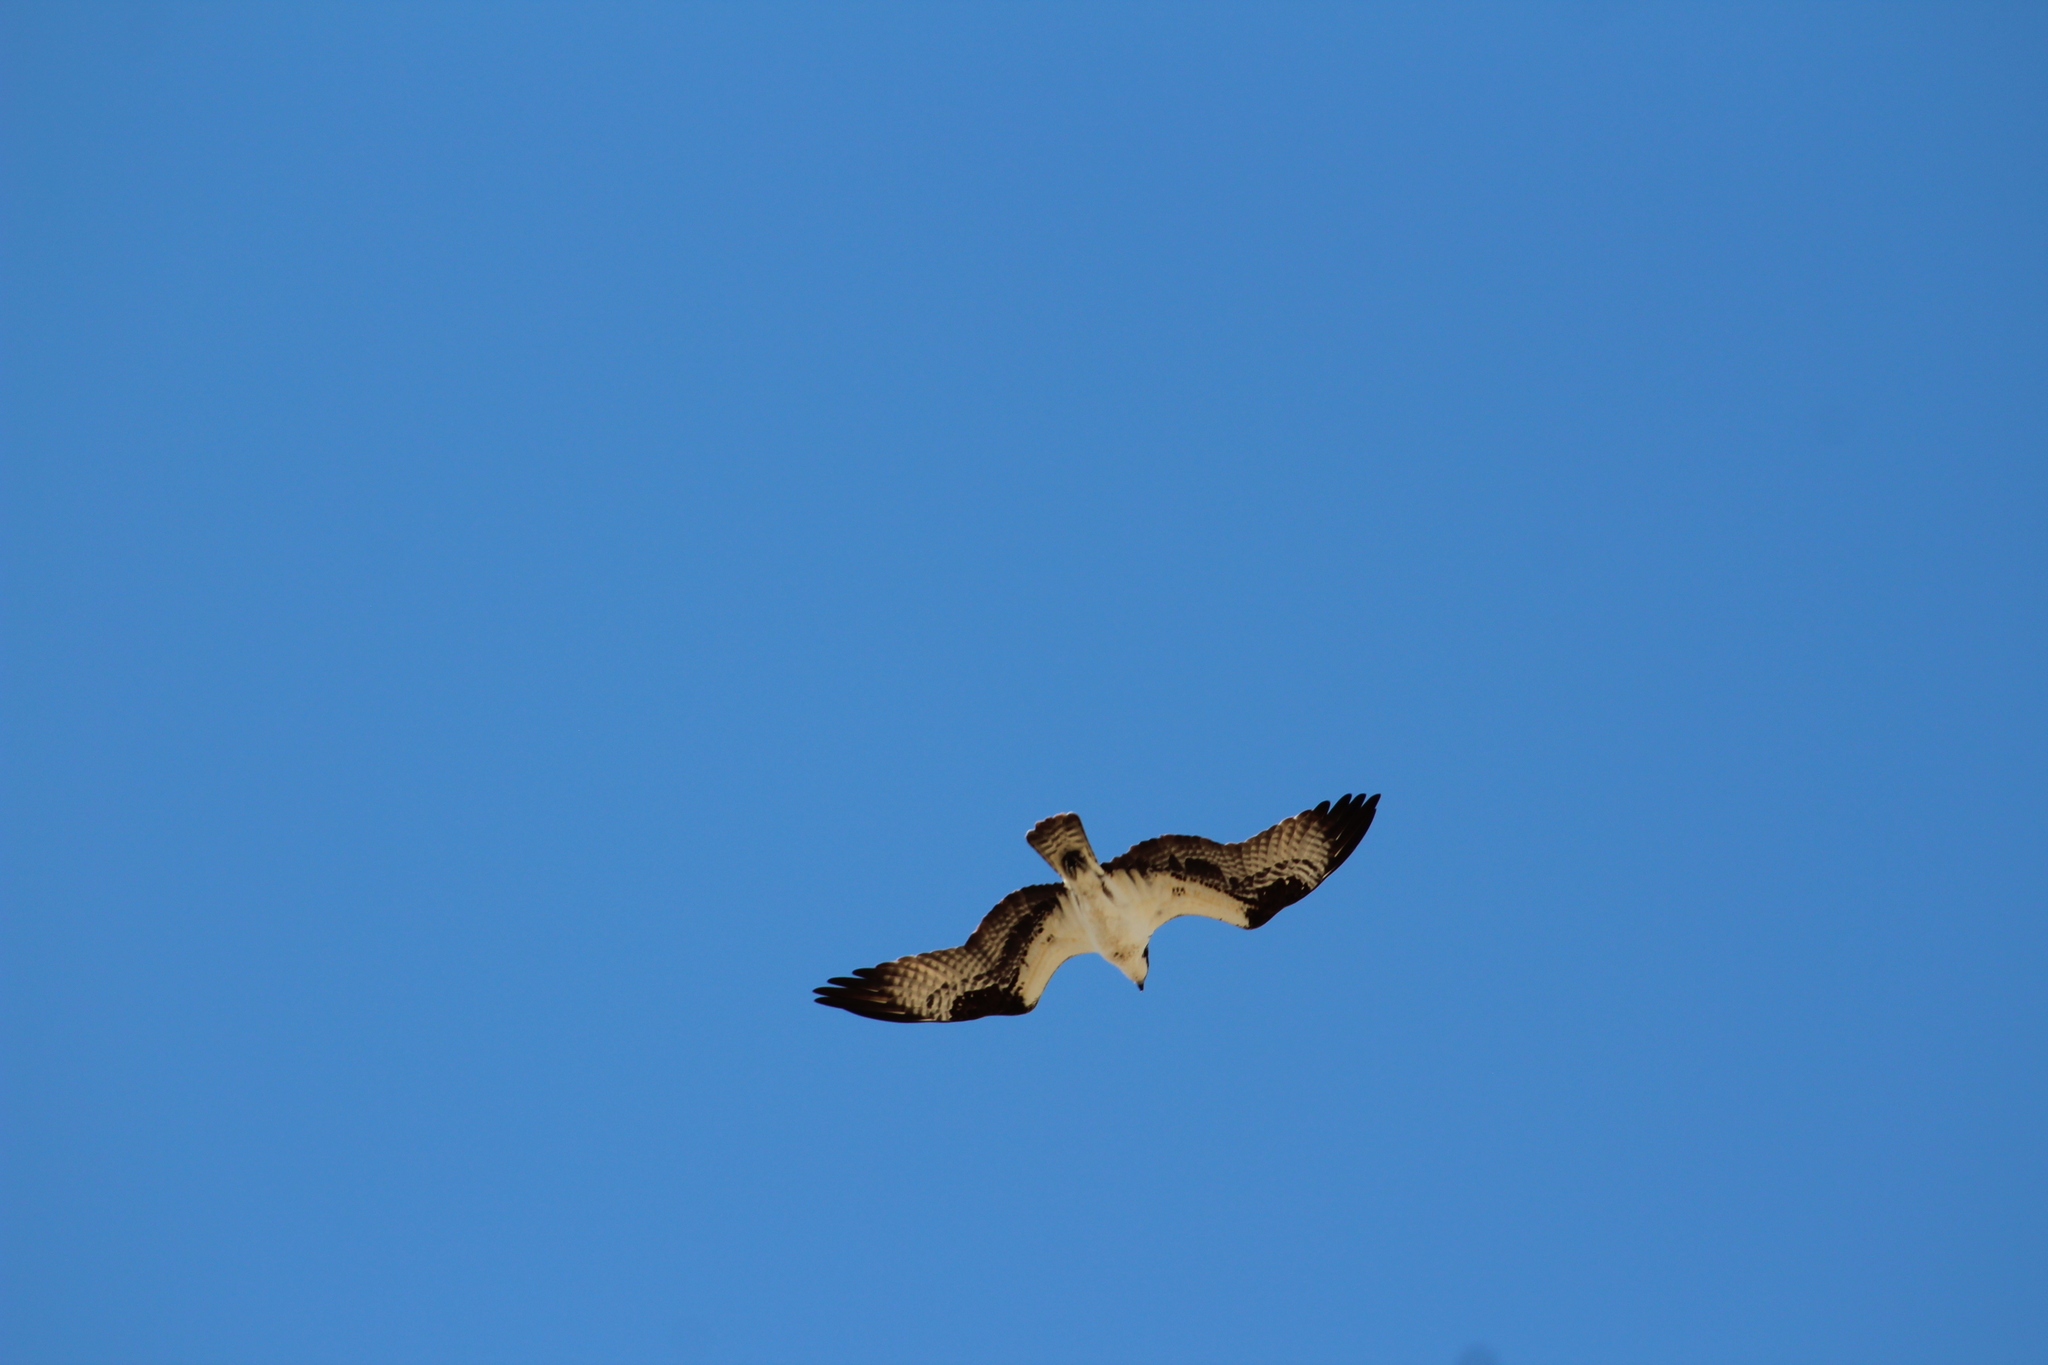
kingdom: Animalia
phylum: Chordata
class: Aves
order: Accipitriformes
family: Pandionidae
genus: Pandion
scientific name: Pandion haliaetus
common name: Osprey
